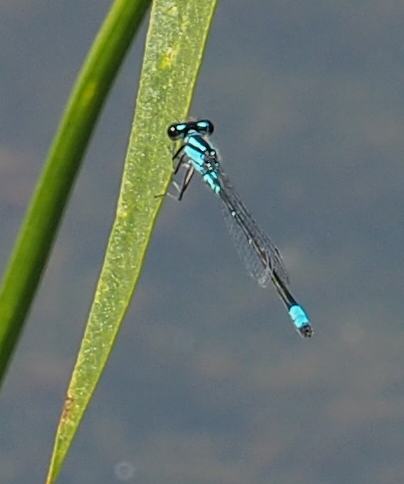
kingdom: Animalia
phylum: Arthropoda
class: Insecta
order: Odonata
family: Coenagrionidae
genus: Enallagma
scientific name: Enallagma geminatum
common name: Skimming bluet
